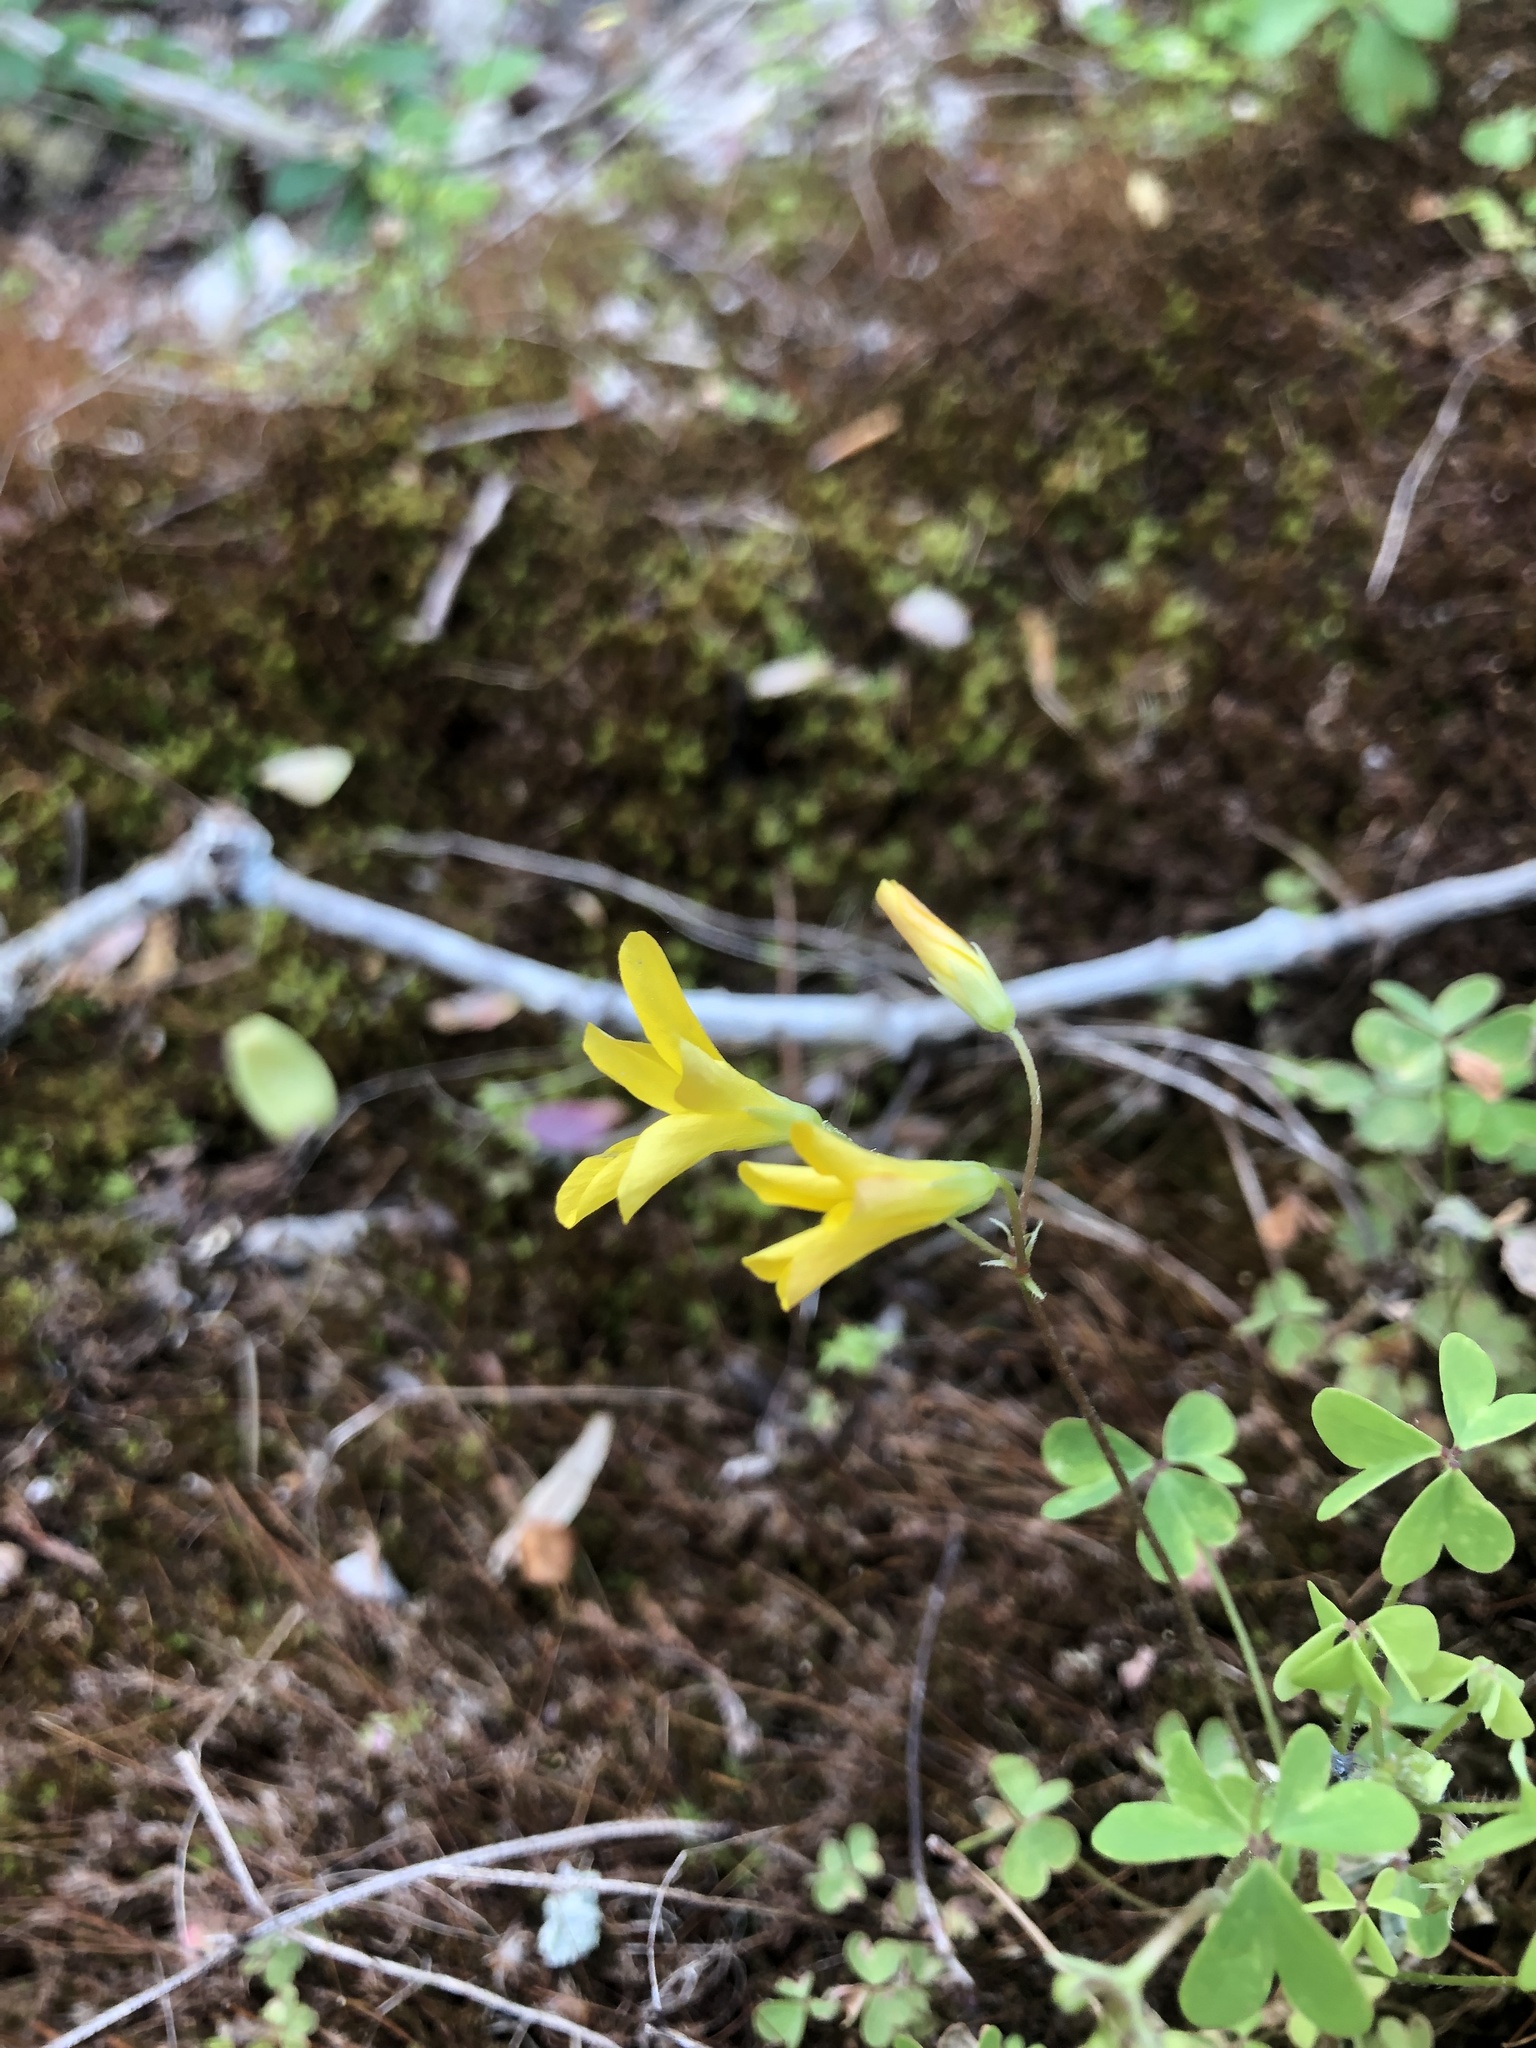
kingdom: Plantae
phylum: Tracheophyta
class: Magnoliopsida
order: Oxalidales
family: Oxalidaceae
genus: Oxalis
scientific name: Oxalis colorea
